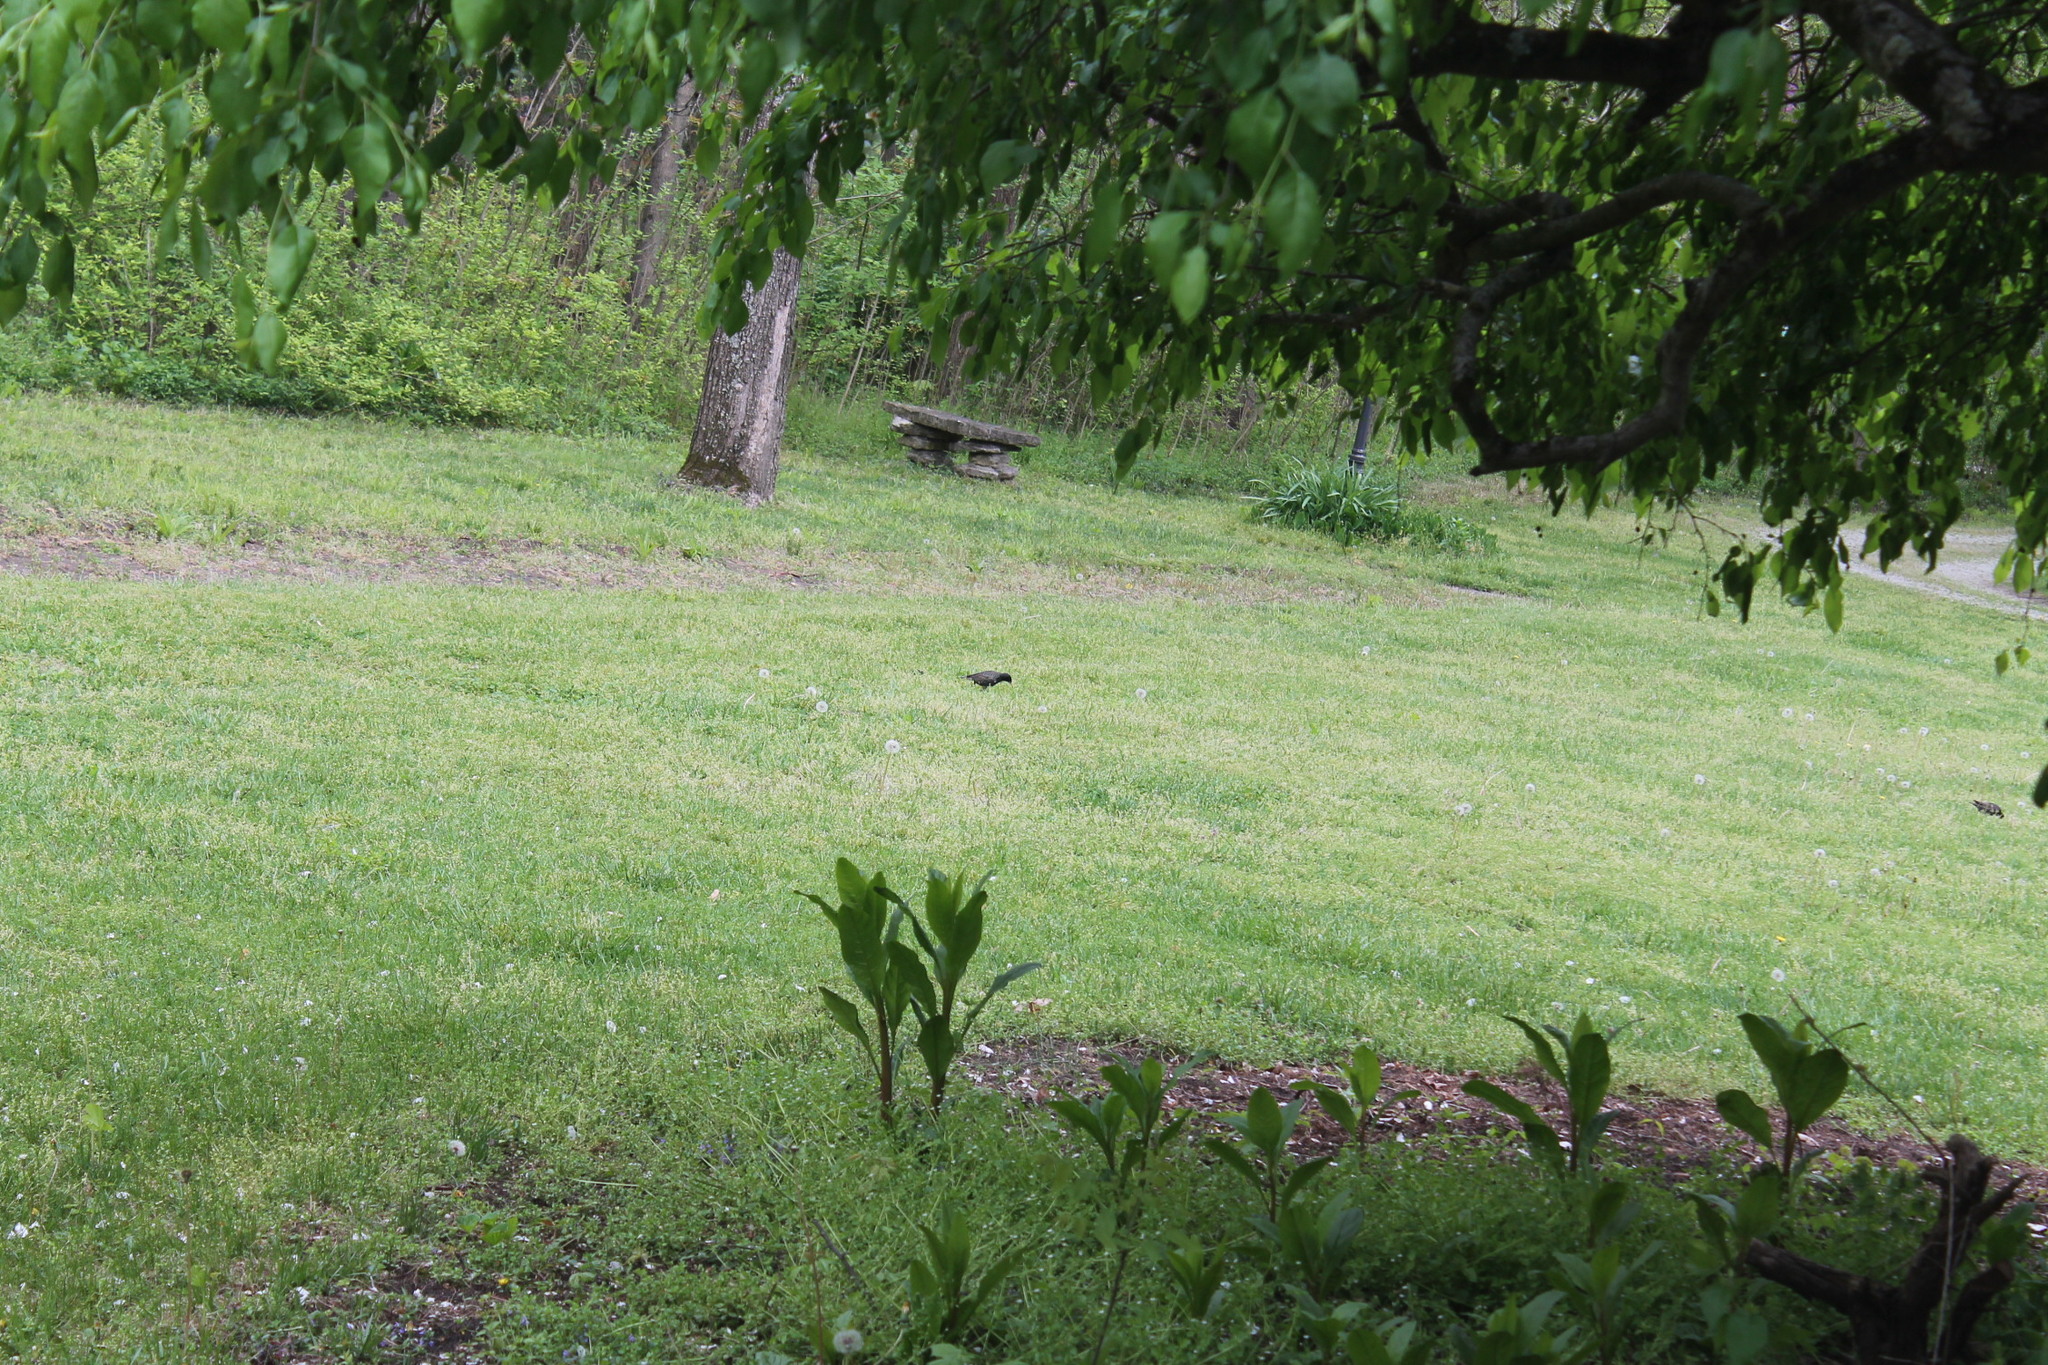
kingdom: Animalia
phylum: Chordata
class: Aves
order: Passeriformes
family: Sturnidae
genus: Sturnus
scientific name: Sturnus vulgaris
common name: Common starling
